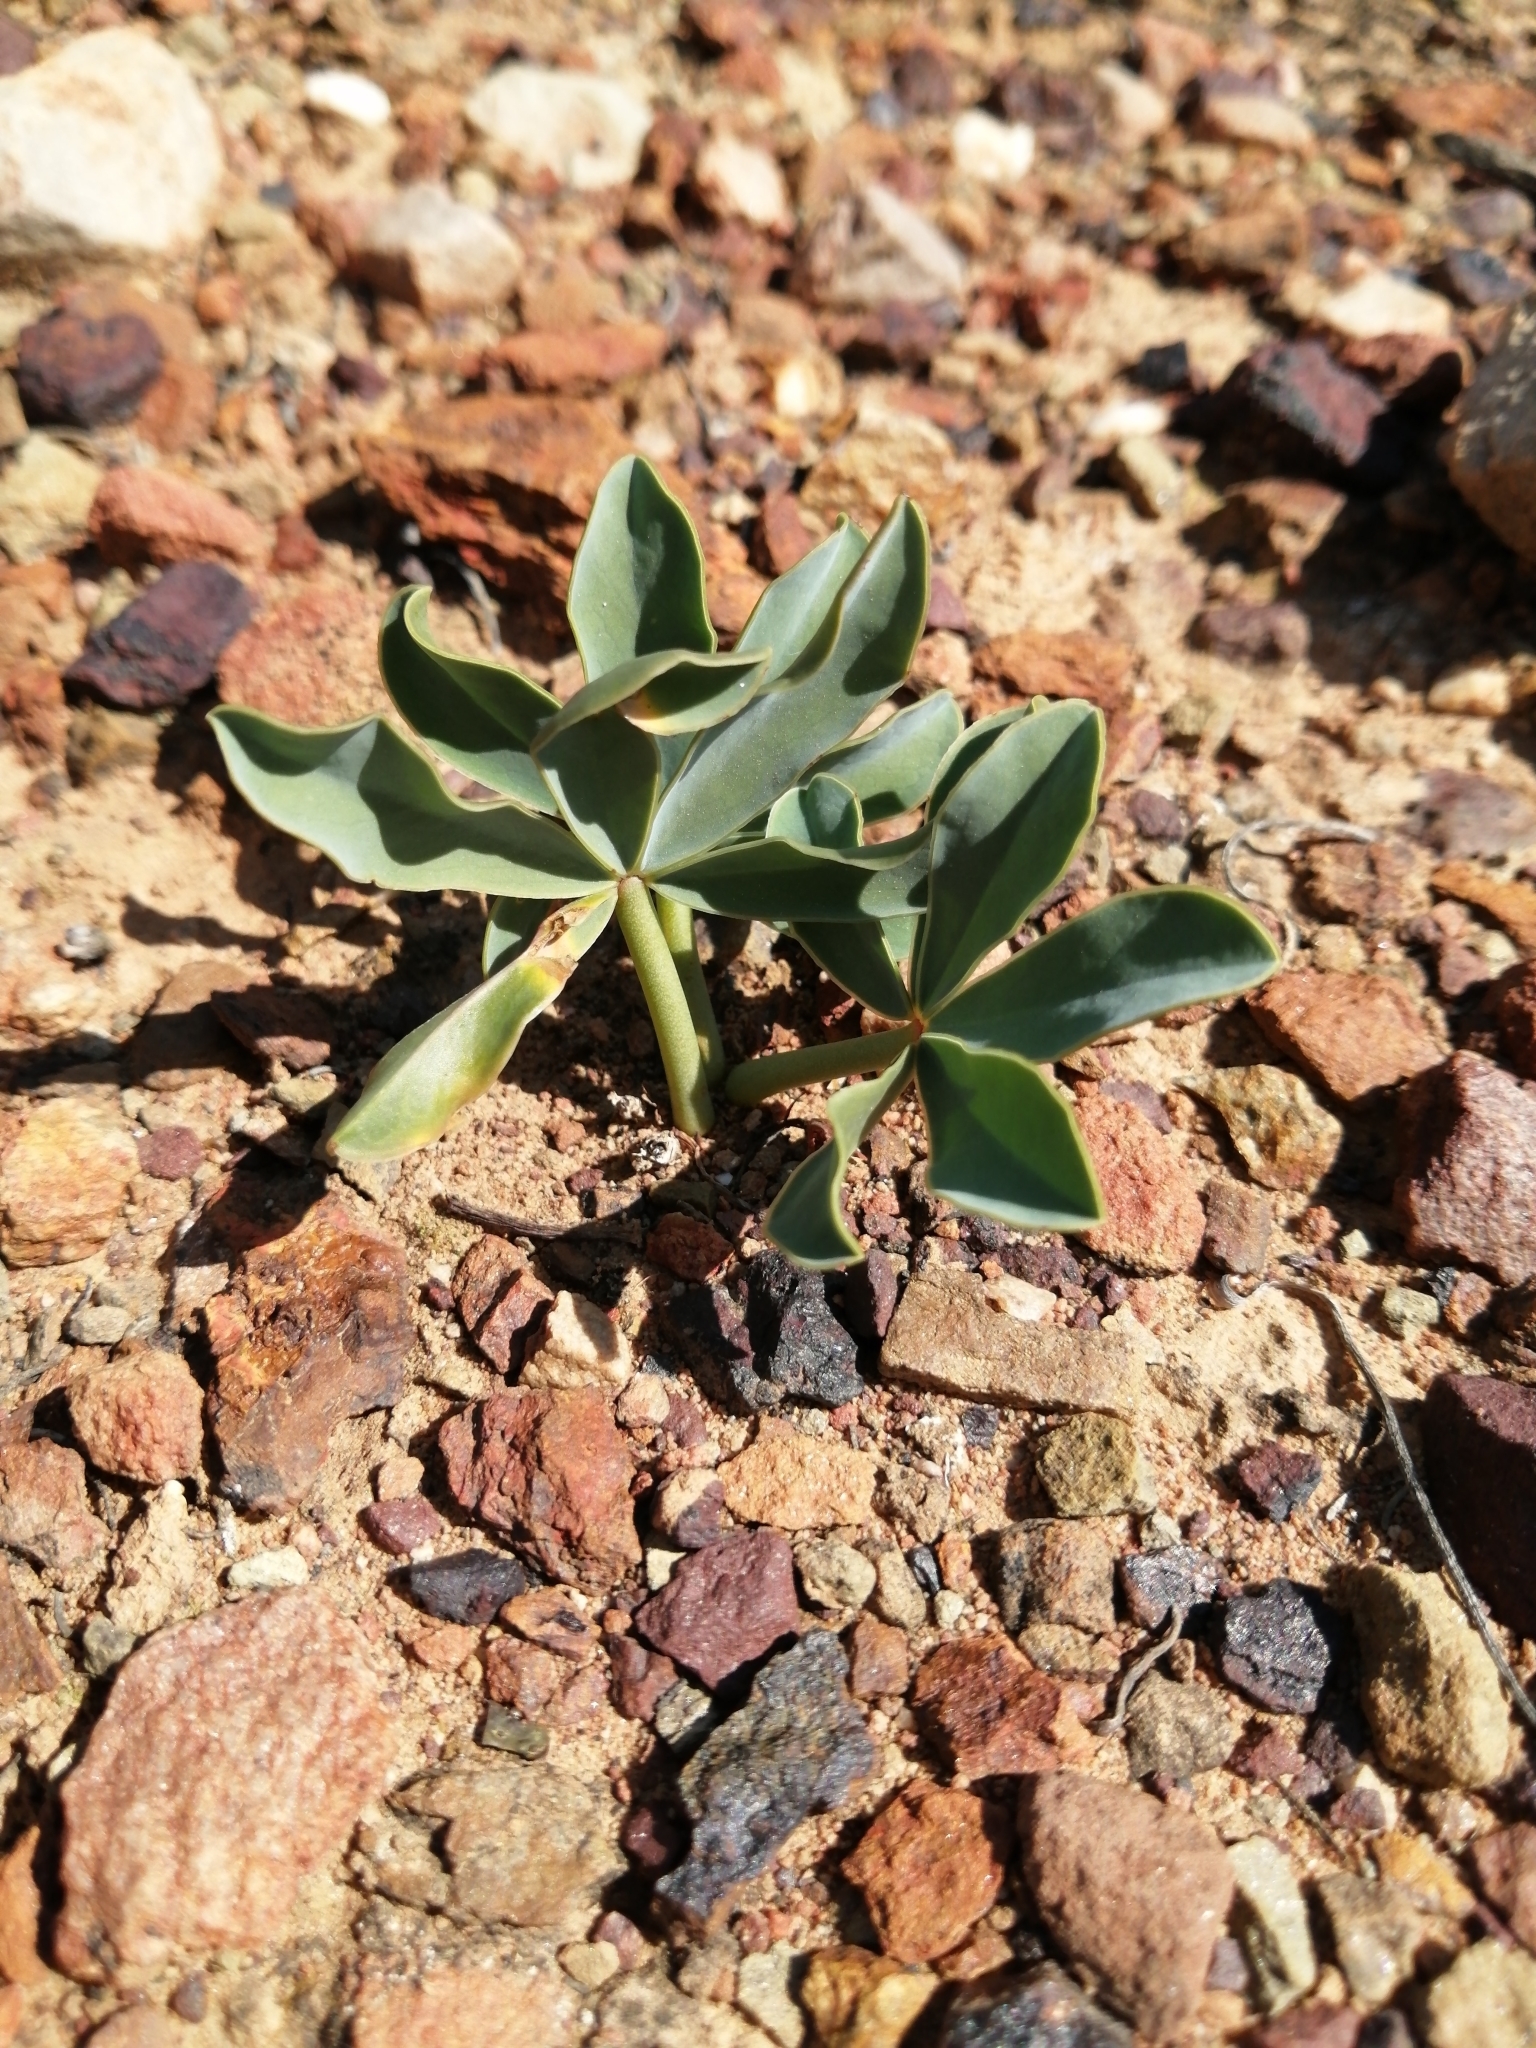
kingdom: Plantae
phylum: Tracheophyta
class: Magnoliopsida
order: Oxalidales
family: Oxalidaceae
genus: Oxalis
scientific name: Oxalis flava
